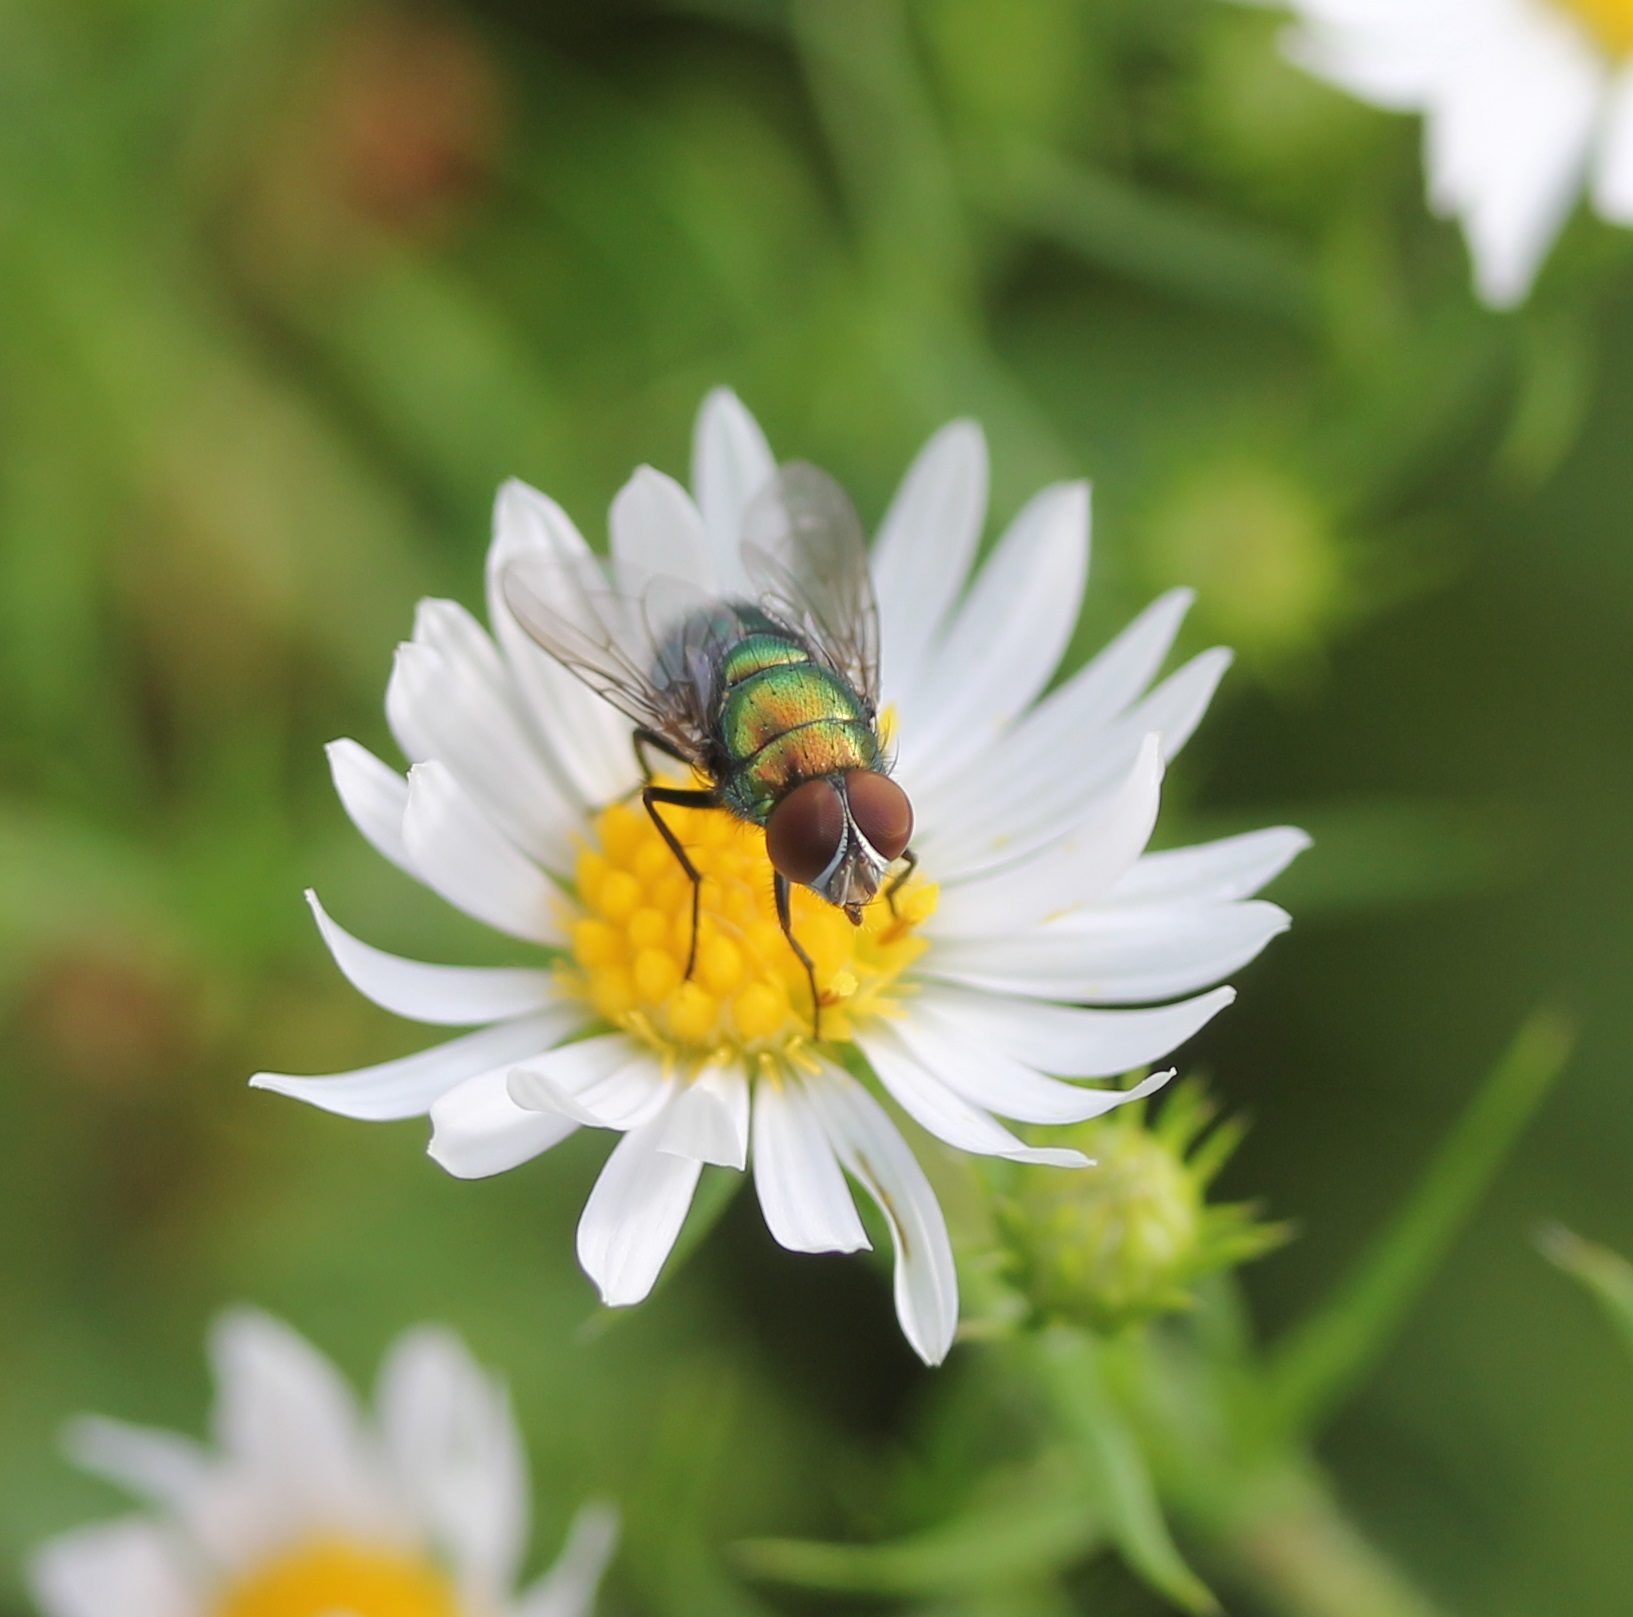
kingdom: Animalia
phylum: Arthropoda
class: Insecta
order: Diptera
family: Calliphoridae
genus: Lucilia
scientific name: Lucilia caeruleiviridis
